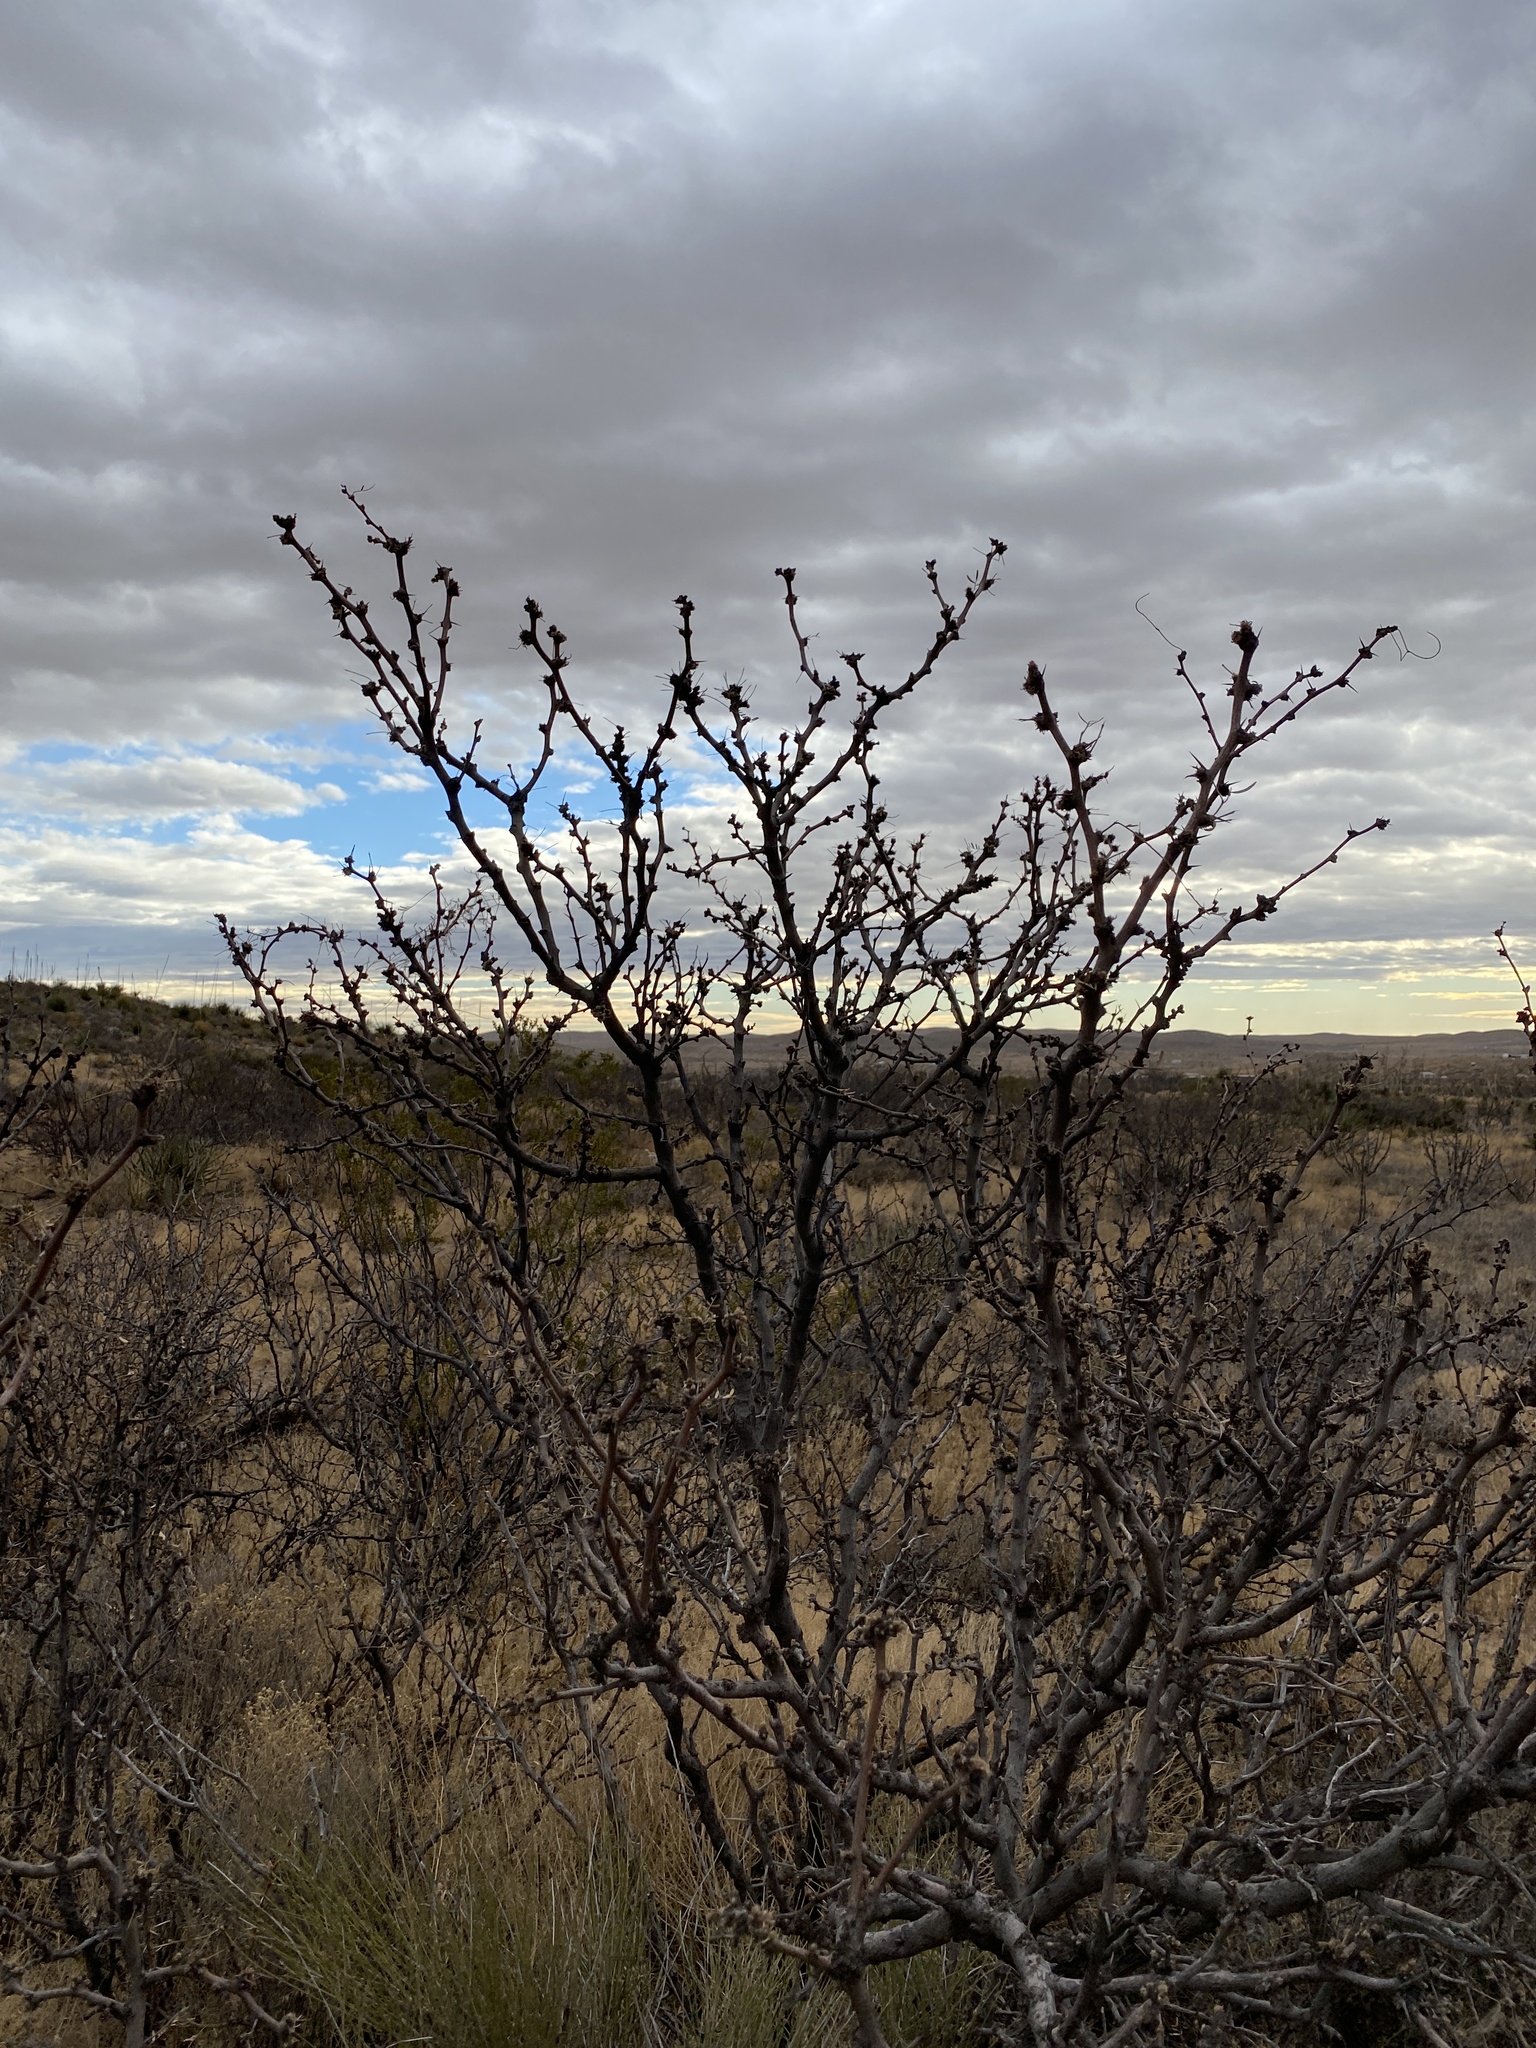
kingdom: Plantae
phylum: Tracheophyta
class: Magnoliopsida
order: Fabales
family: Fabaceae
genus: Prosopis
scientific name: Prosopis glandulosa
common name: Honey mesquite
